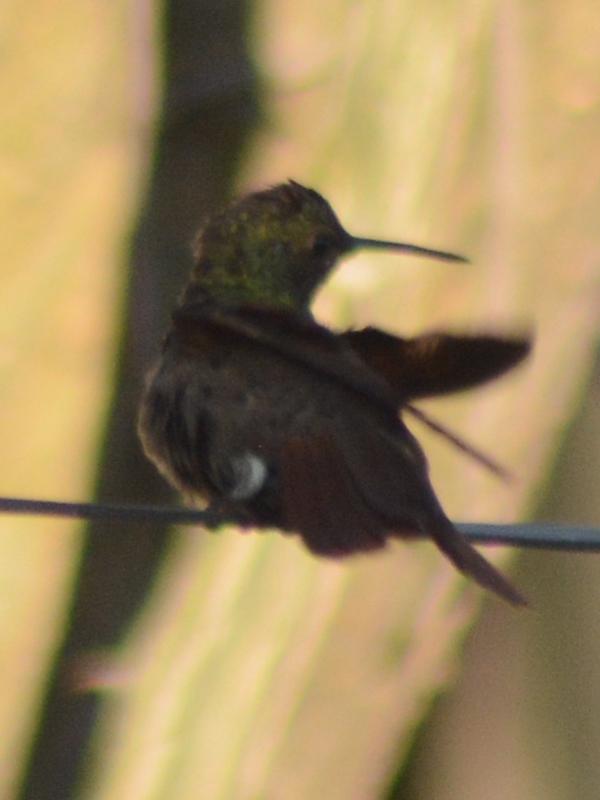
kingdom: Animalia
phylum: Chordata
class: Aves
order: Apodiformes
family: Trochilidae
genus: Saucerottia
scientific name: Saucerottia beryllina
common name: Berylline hummingbird
